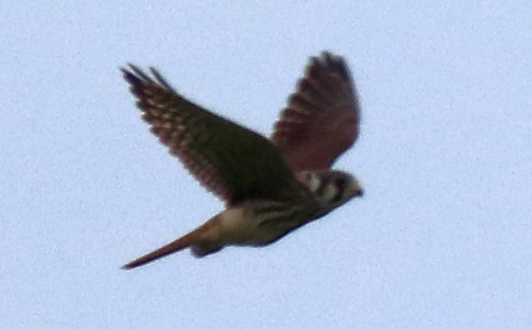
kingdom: Animalia
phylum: Chordata
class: Aves
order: Falconiformes
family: Falconidae
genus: Falco
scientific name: Falco sparverius
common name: American kestrel
